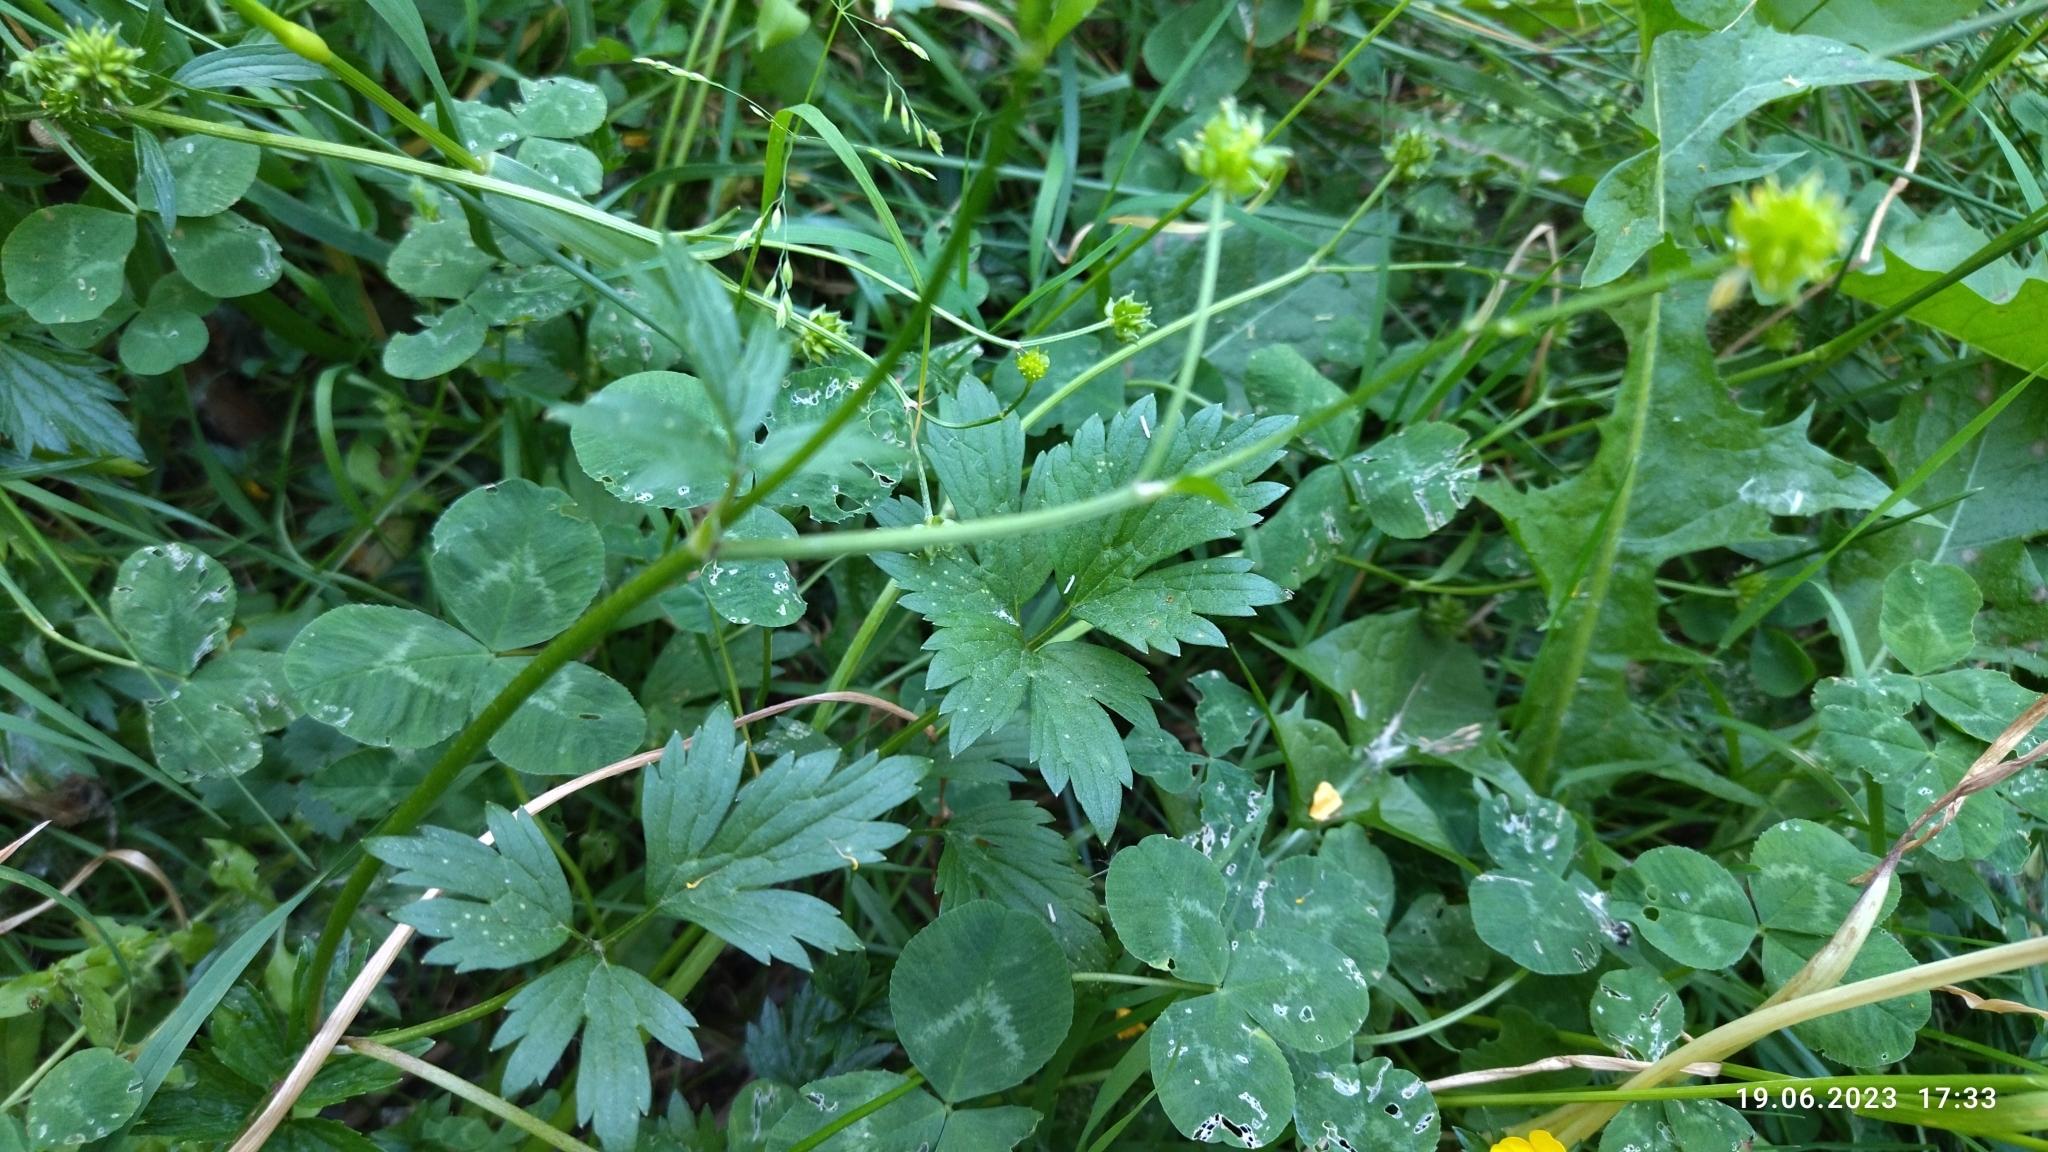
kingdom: Plantae
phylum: Tracheophyta
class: Magnoliopsida
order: Ranunculales
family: Ranunculaceae
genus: Ranunculus
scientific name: Ranunculus repens
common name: Creeping buttercup
